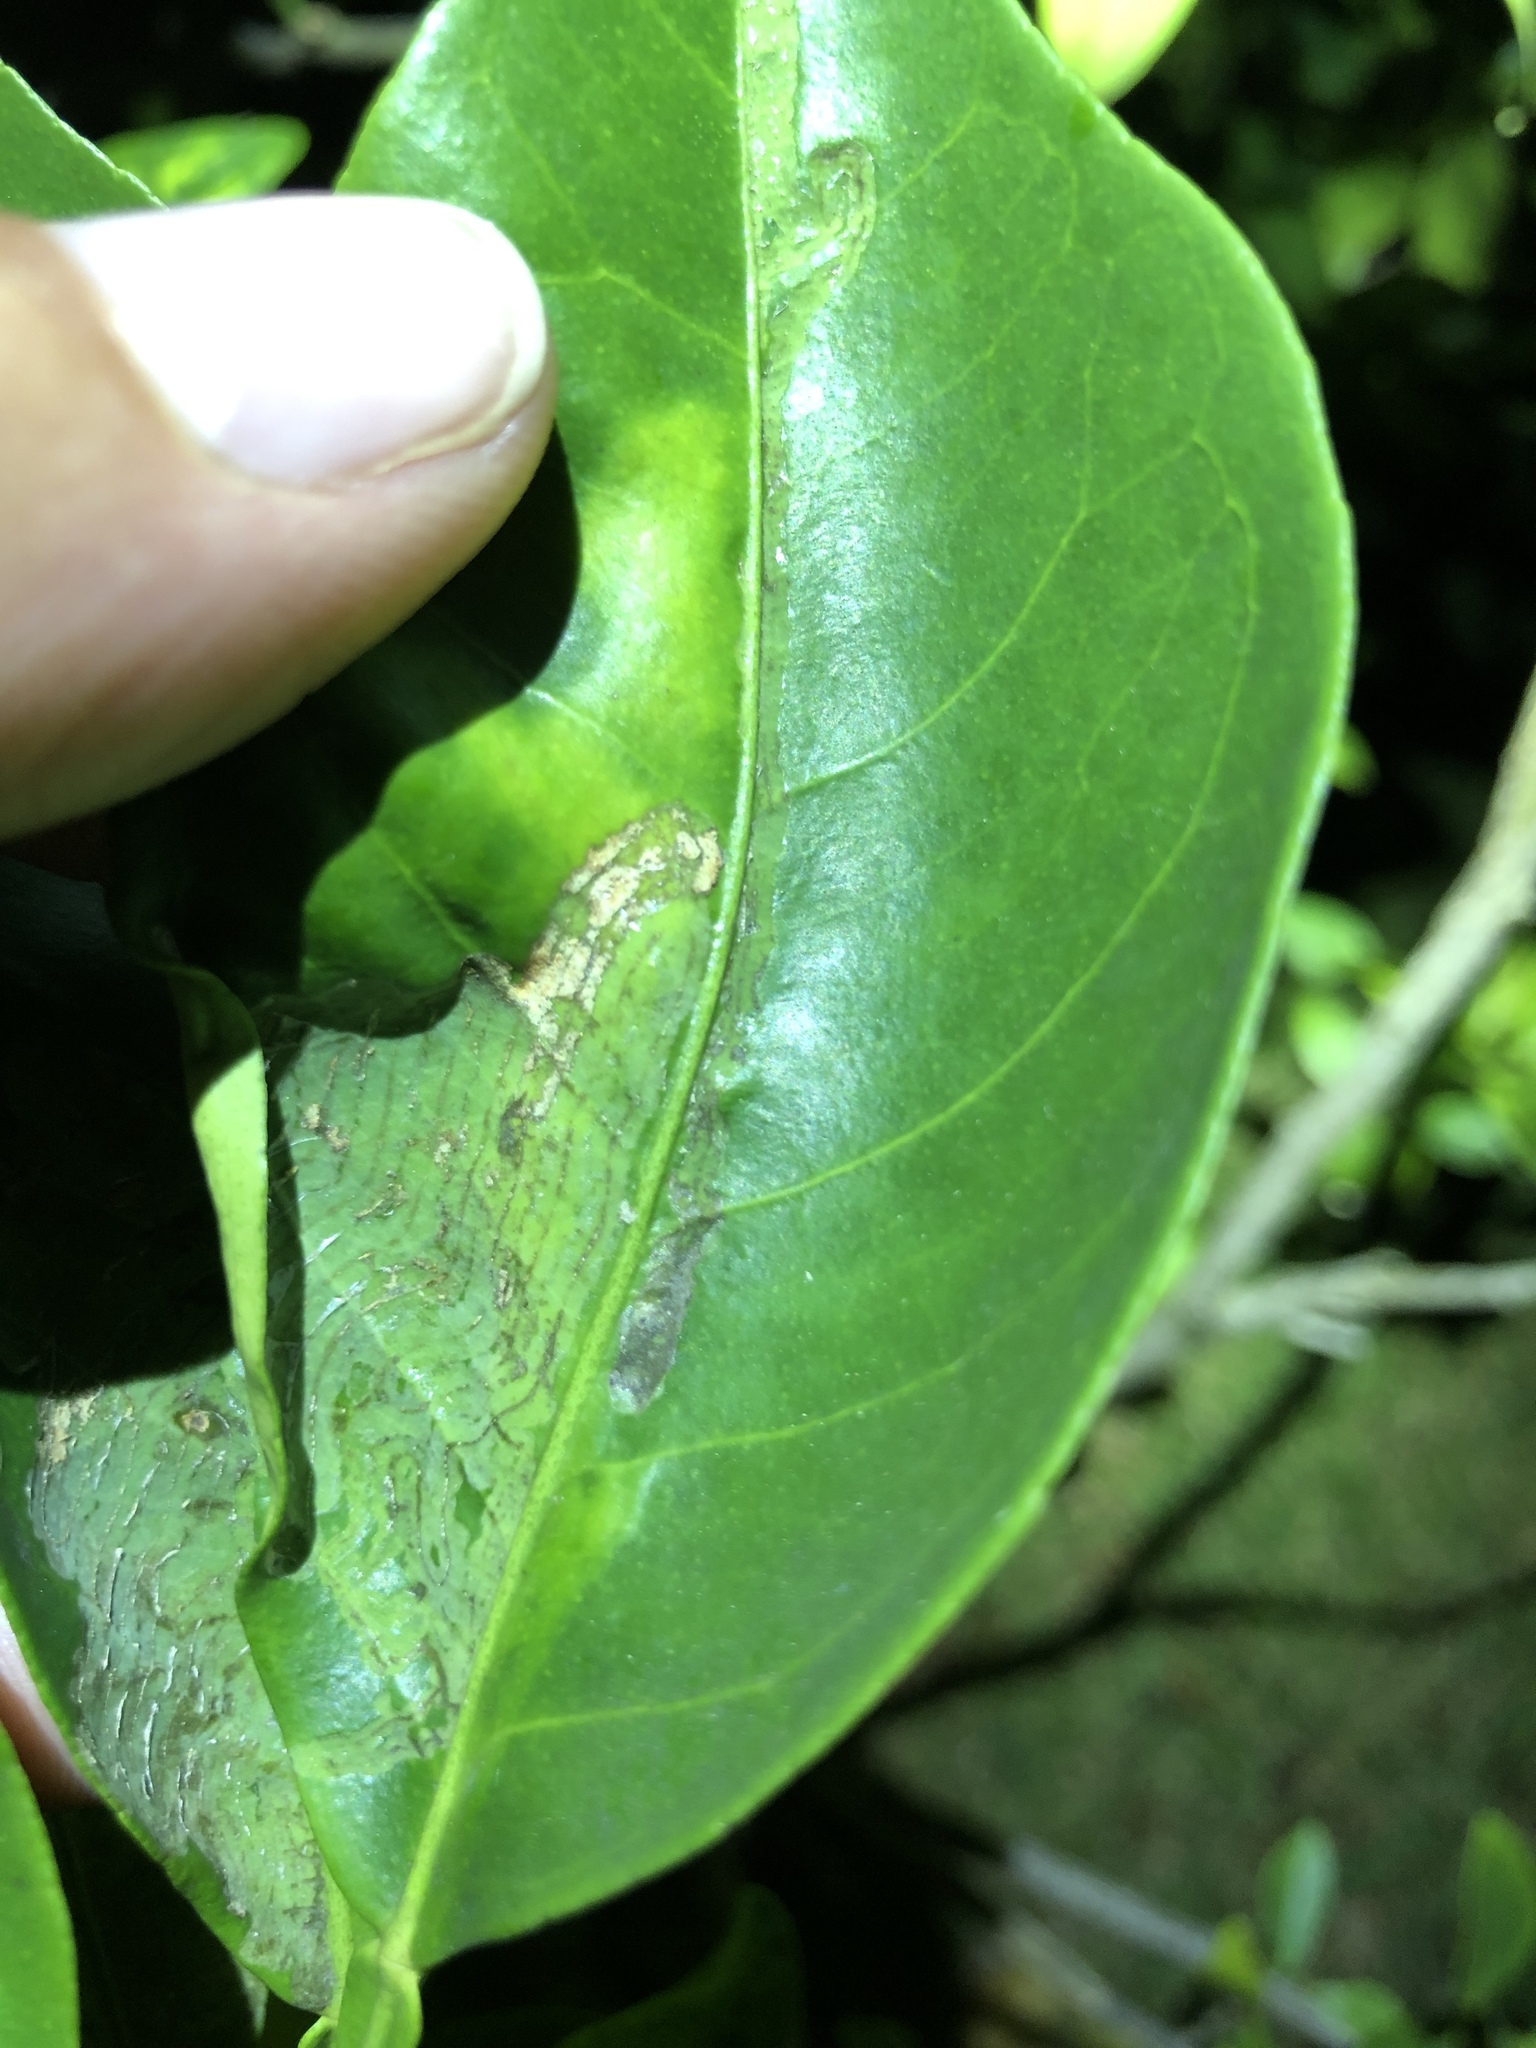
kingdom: Animalia
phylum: Arthropoda
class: Insecta
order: Lepidoptera
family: Gracillariidae
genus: Phyllocnistis
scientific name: Phyllocnistis citrella
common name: Citrus leafminer
